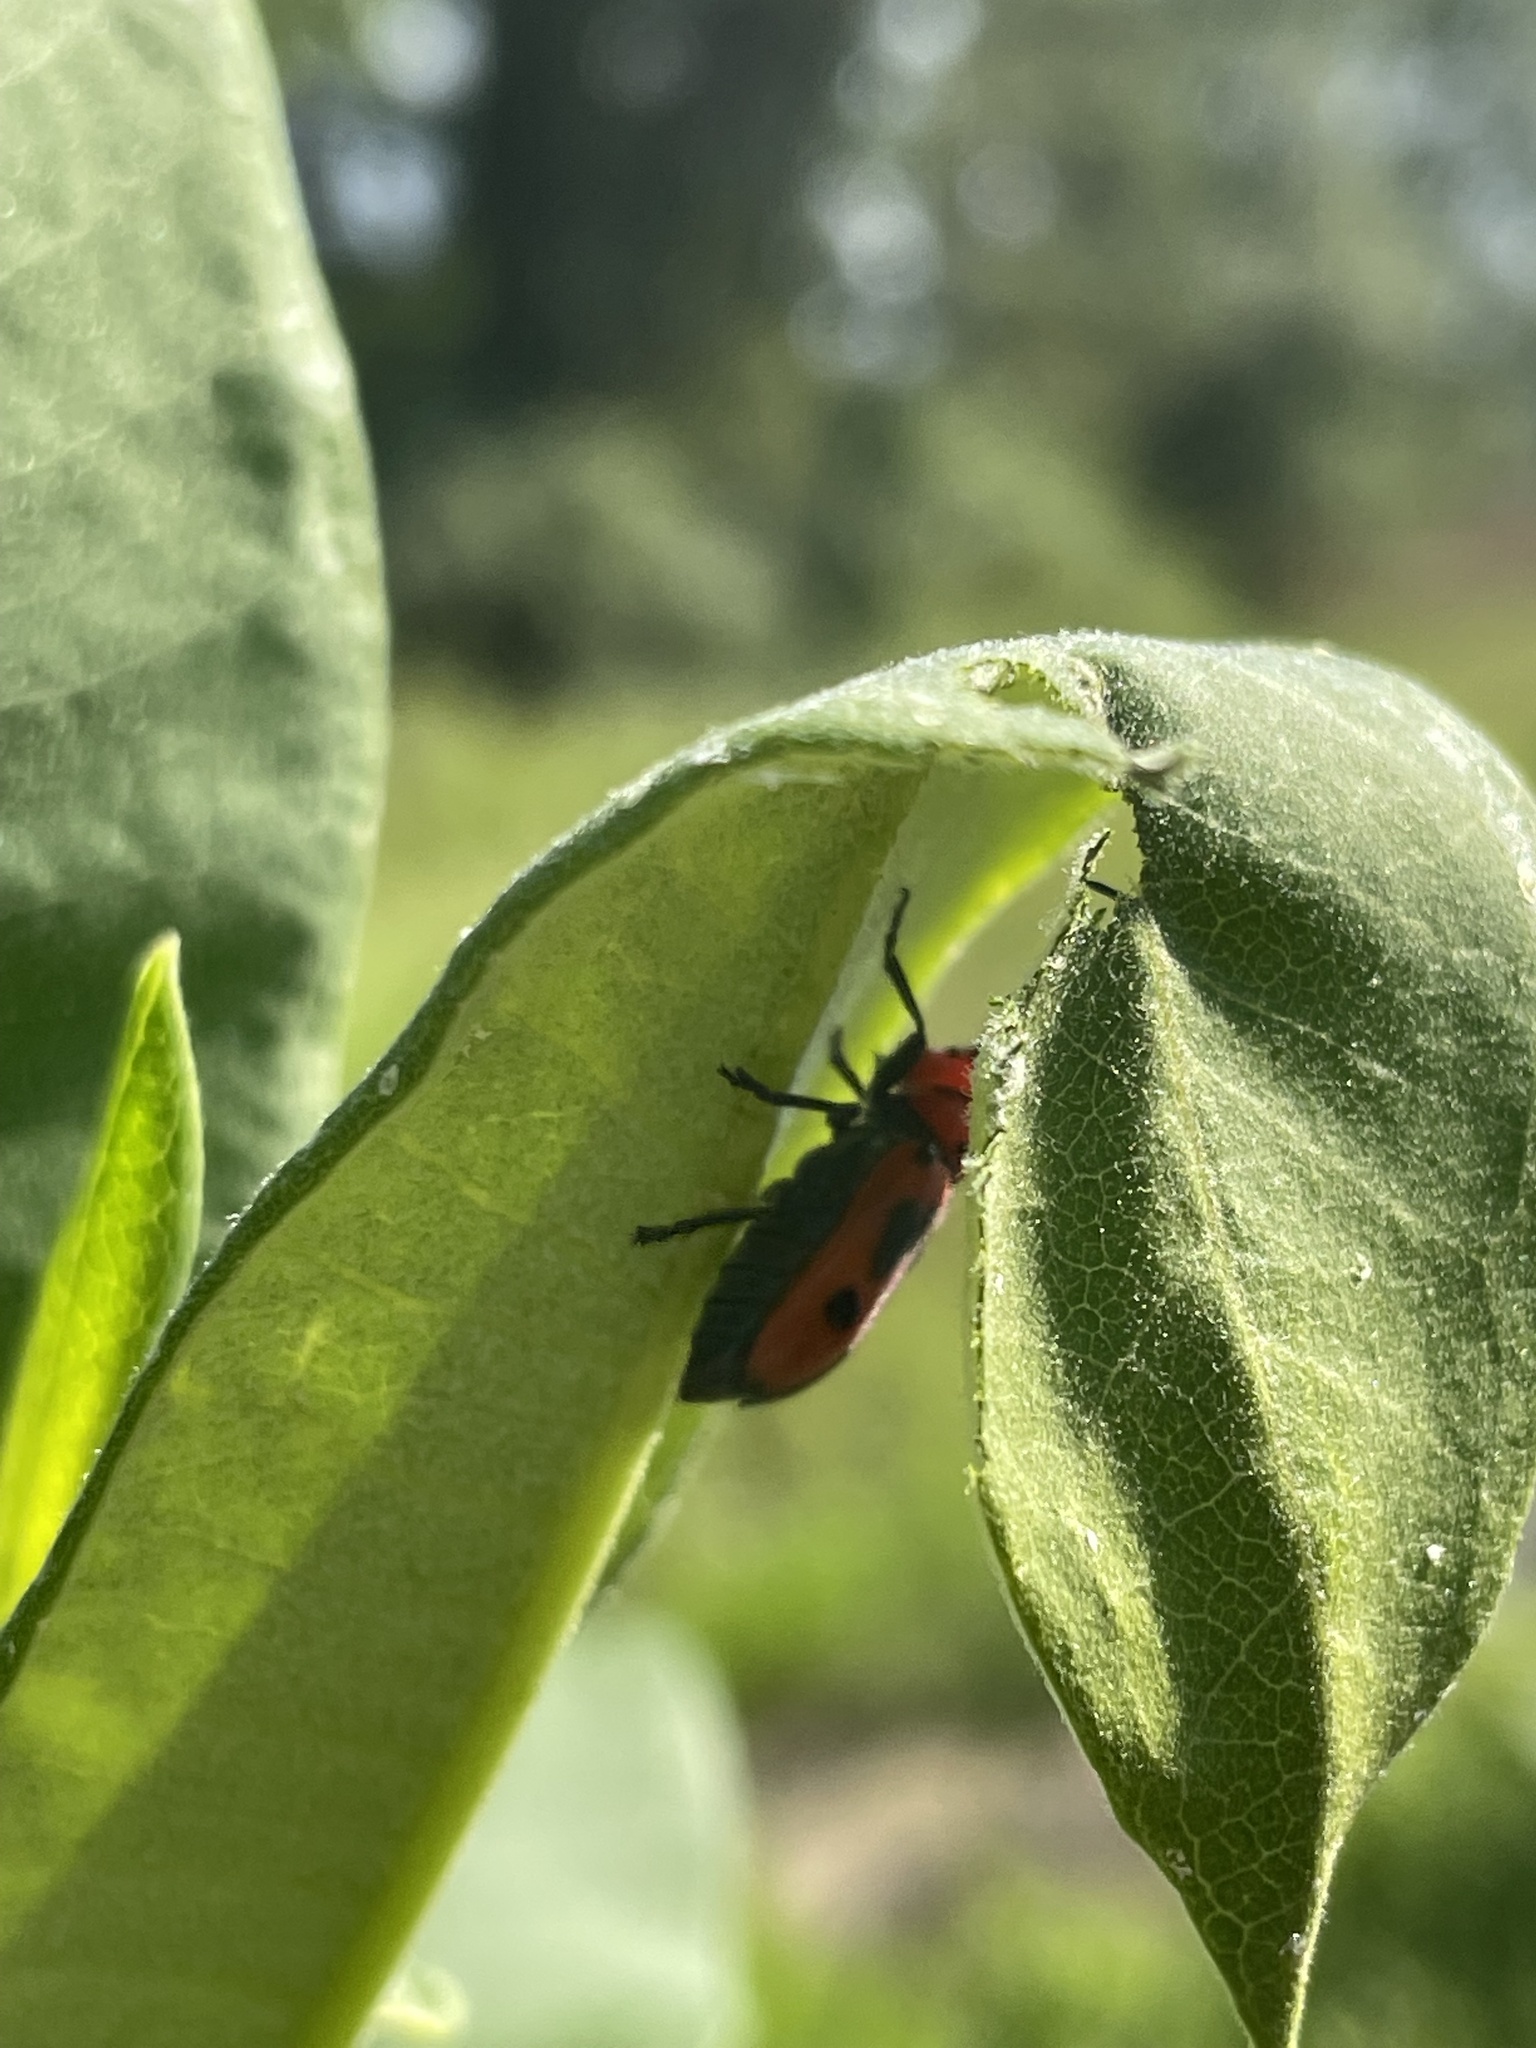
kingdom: Animalia
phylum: Arthropoda
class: Insecta
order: Coleoptera
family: Cerambycidae
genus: Tetraopes
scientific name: Tetraopes tetrophthalmus
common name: Red milkweed beetle
